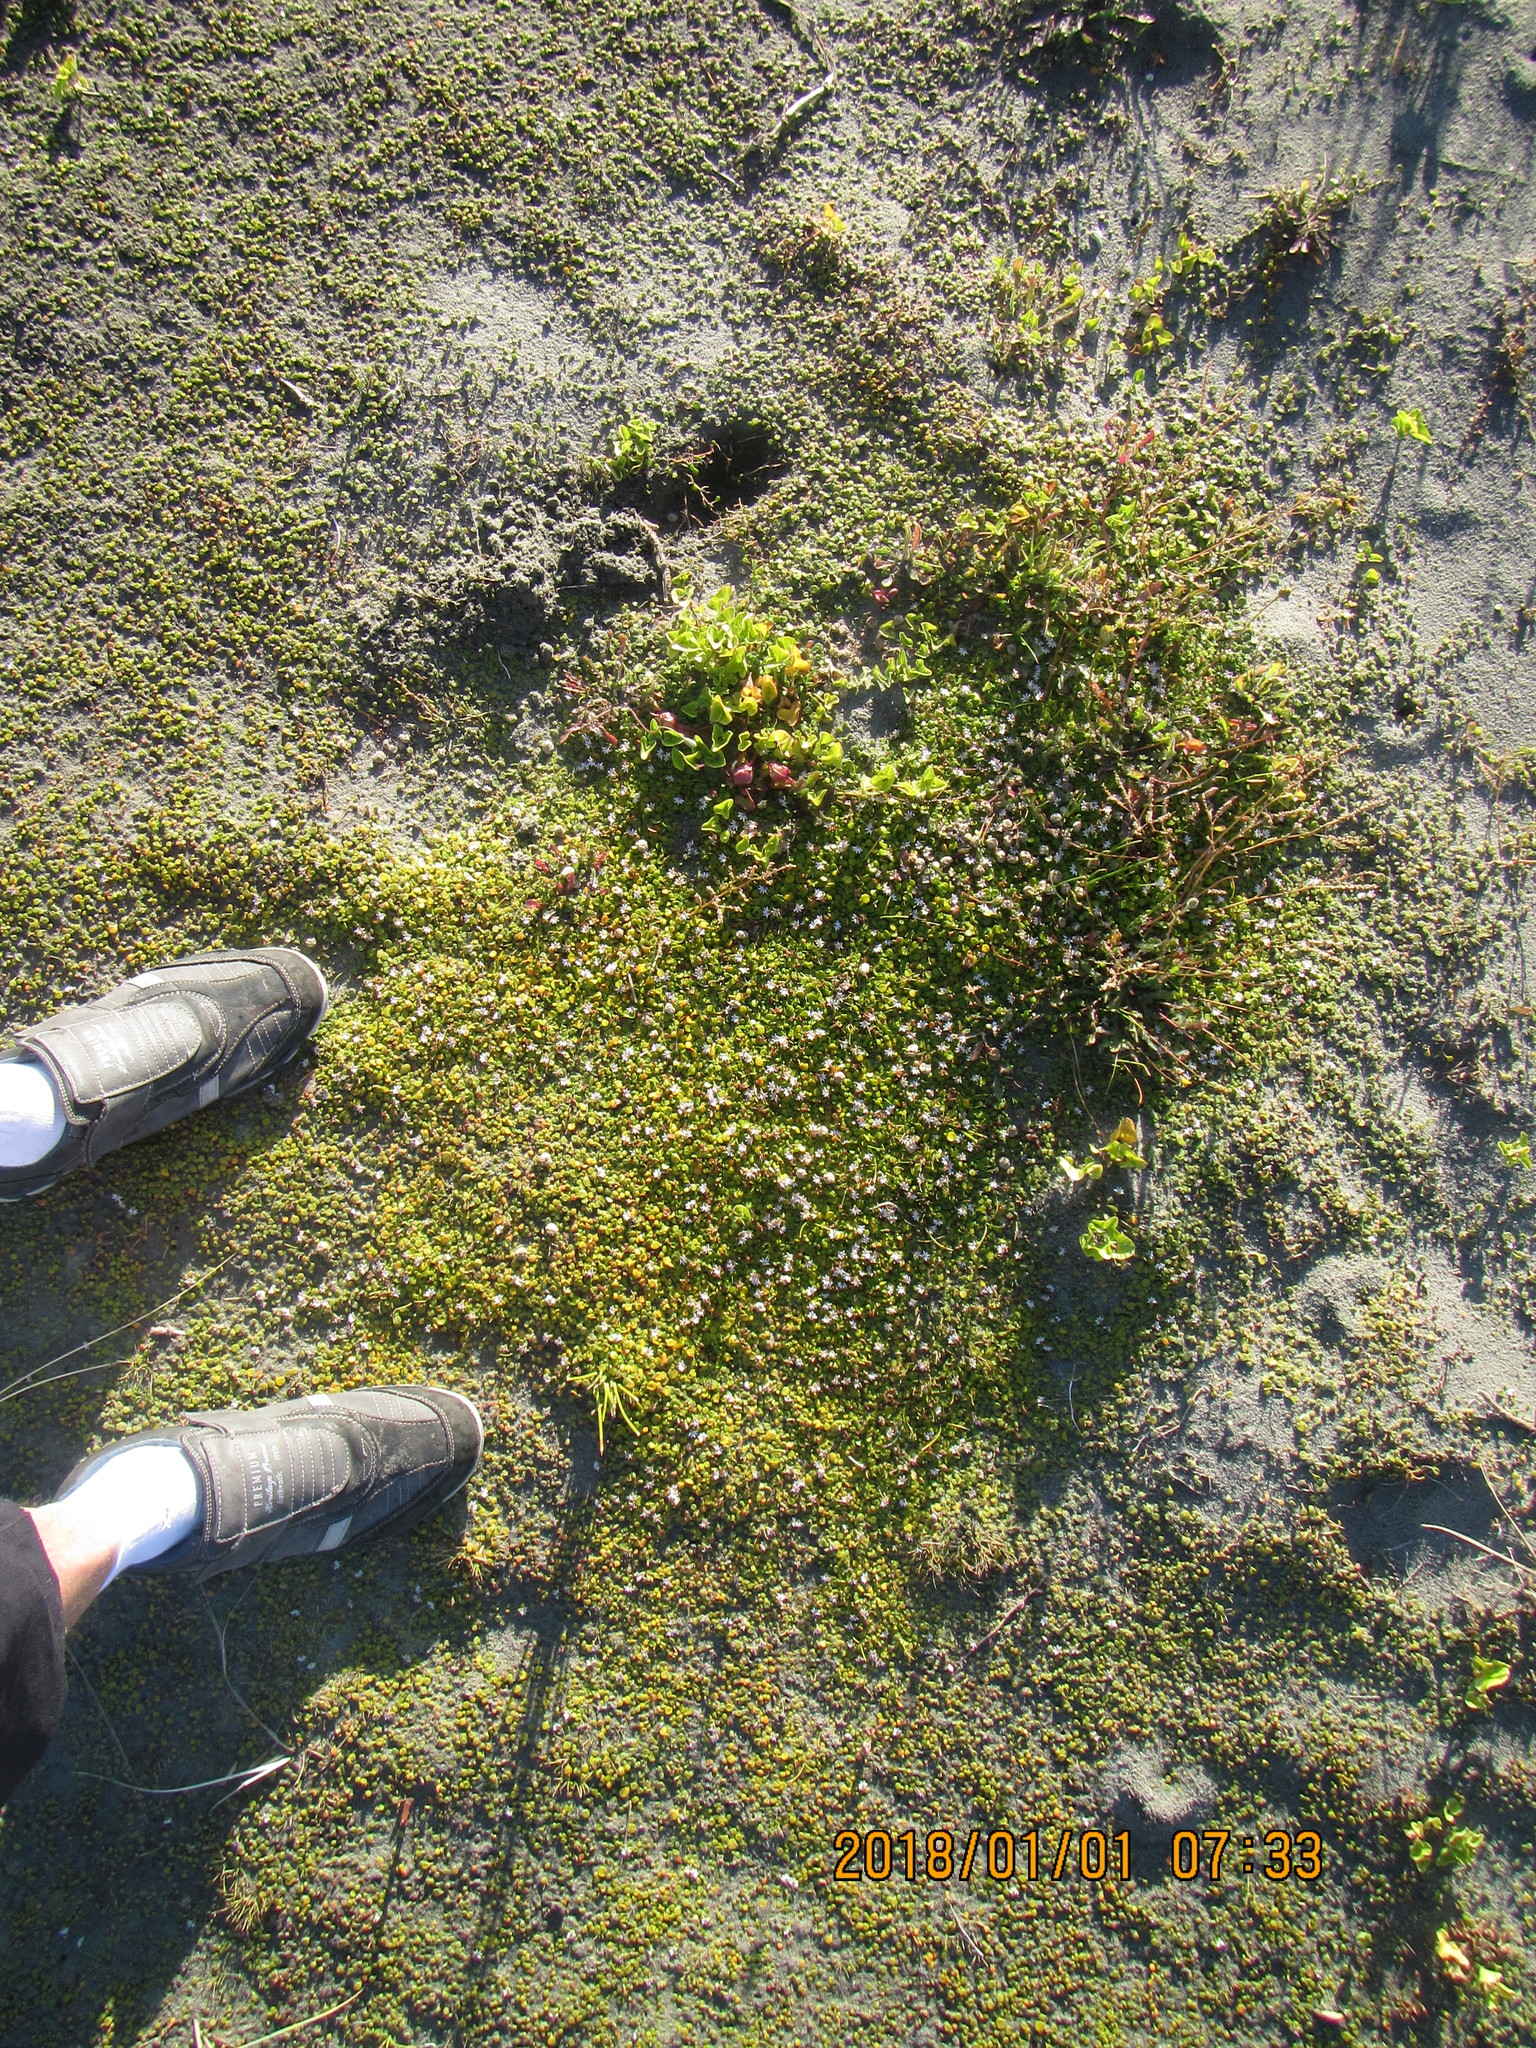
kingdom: Plantae
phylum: Tracheophyta
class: Magnoliopsida
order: Asterales
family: Goodeniaceae
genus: Goodenia
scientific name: Goodenia heenanii
